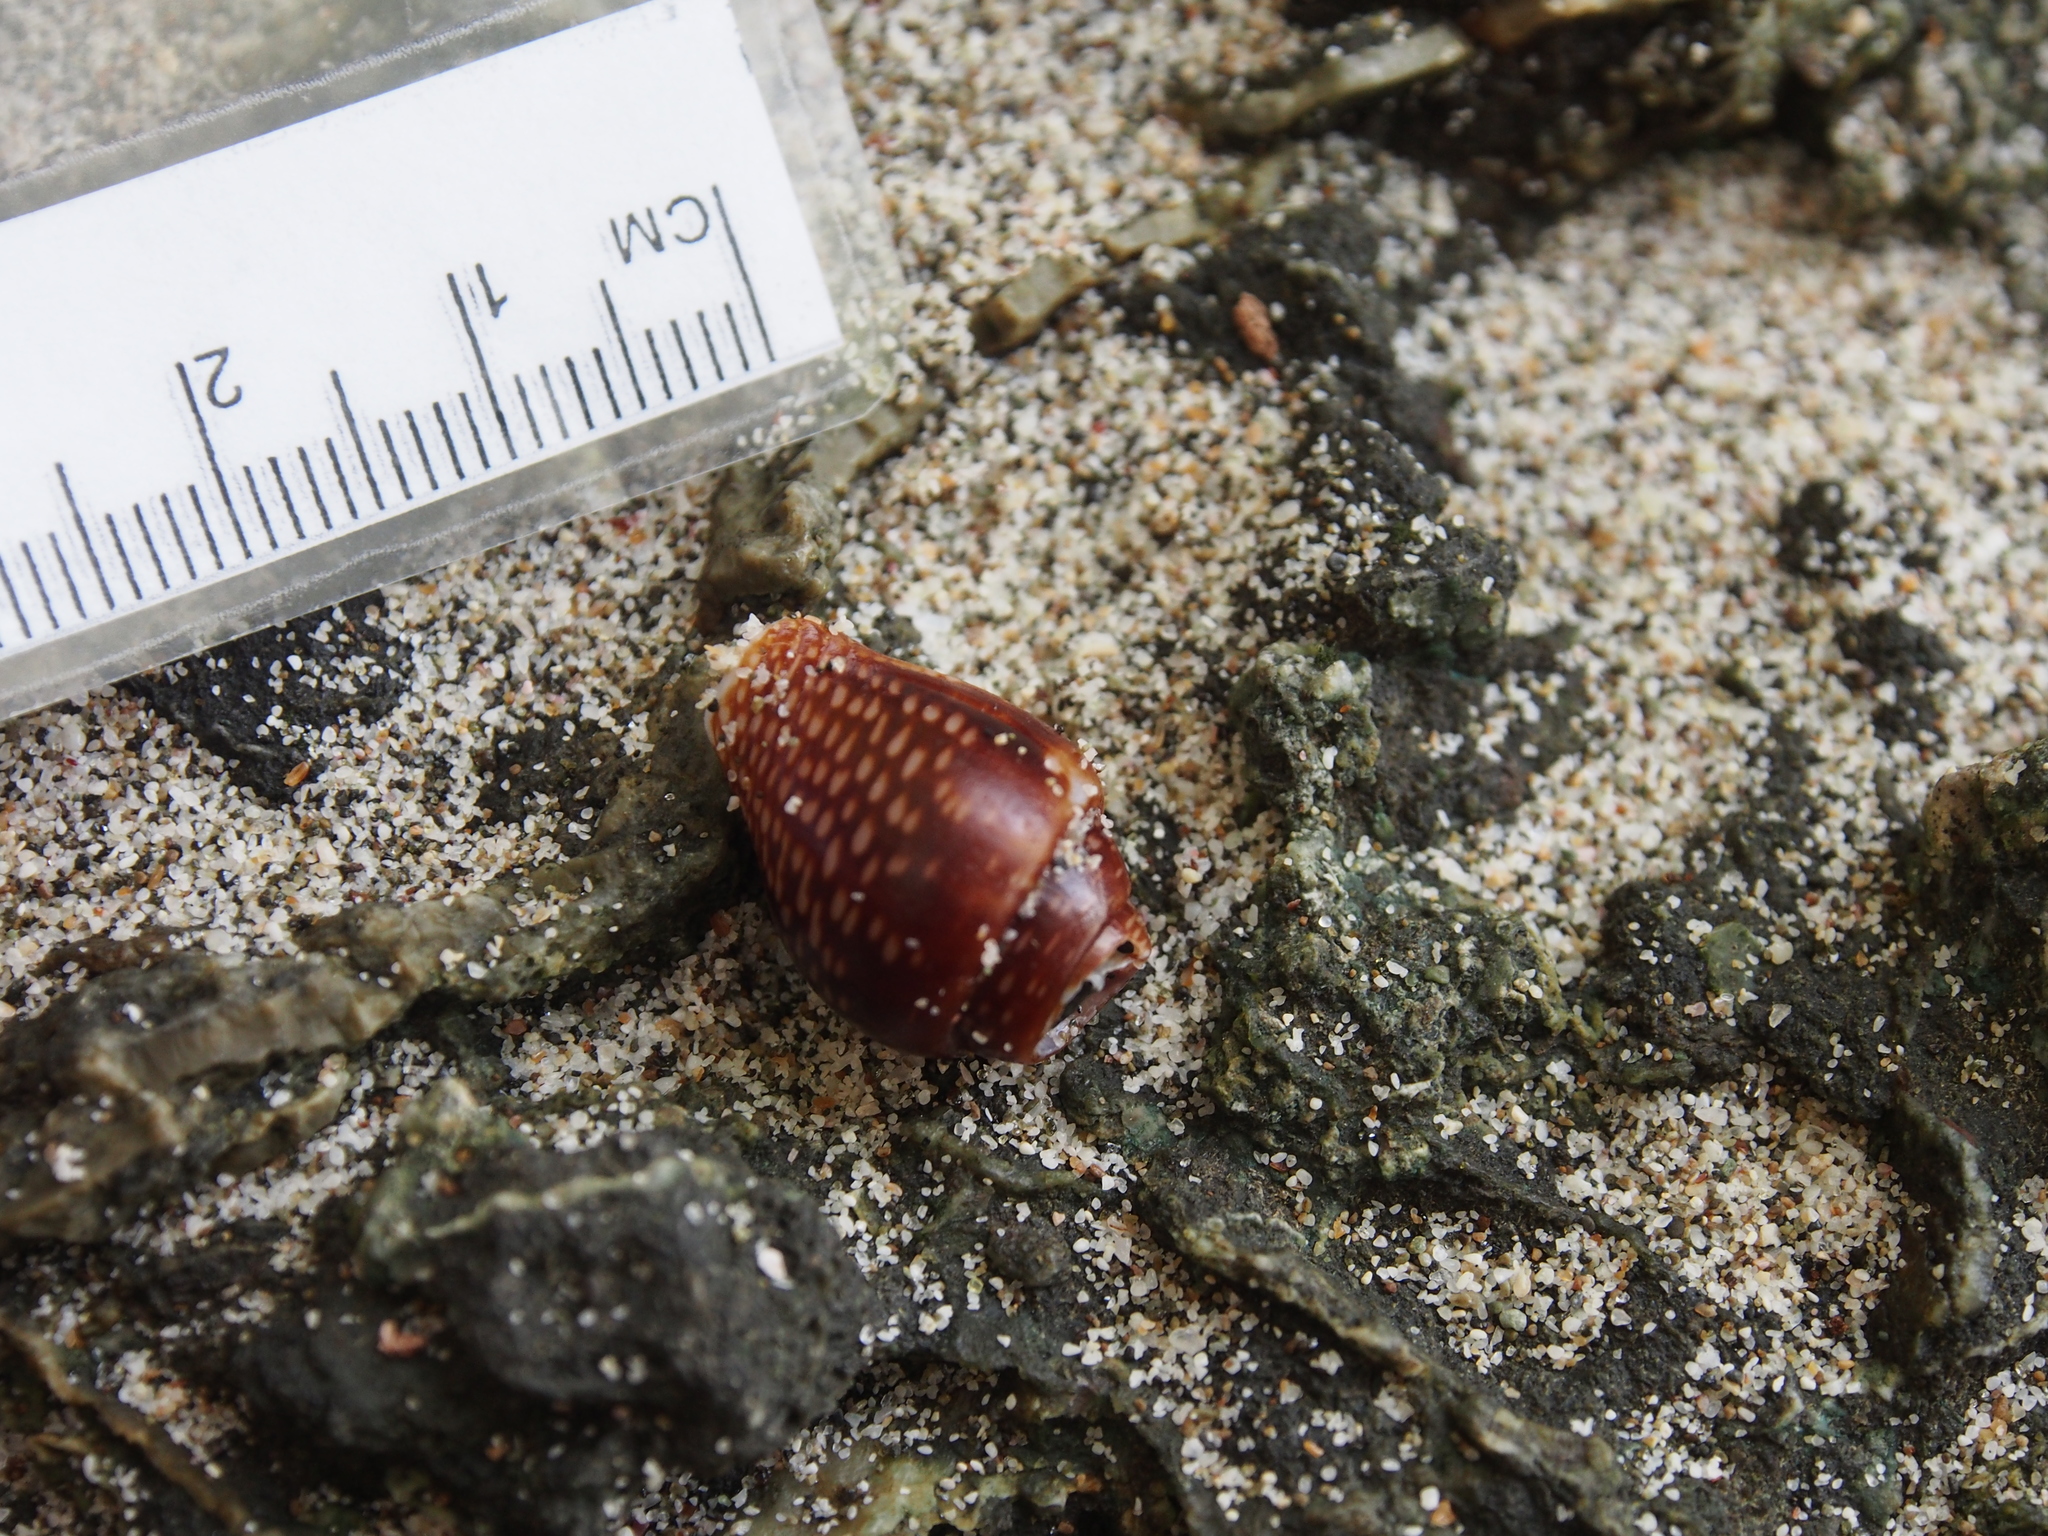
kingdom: Animalia
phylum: Mollusca
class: Gastropoda
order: Neogastropoda
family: Columbellidae
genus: Columbella
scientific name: Columbella strombiformis
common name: Stromboid dove shell
